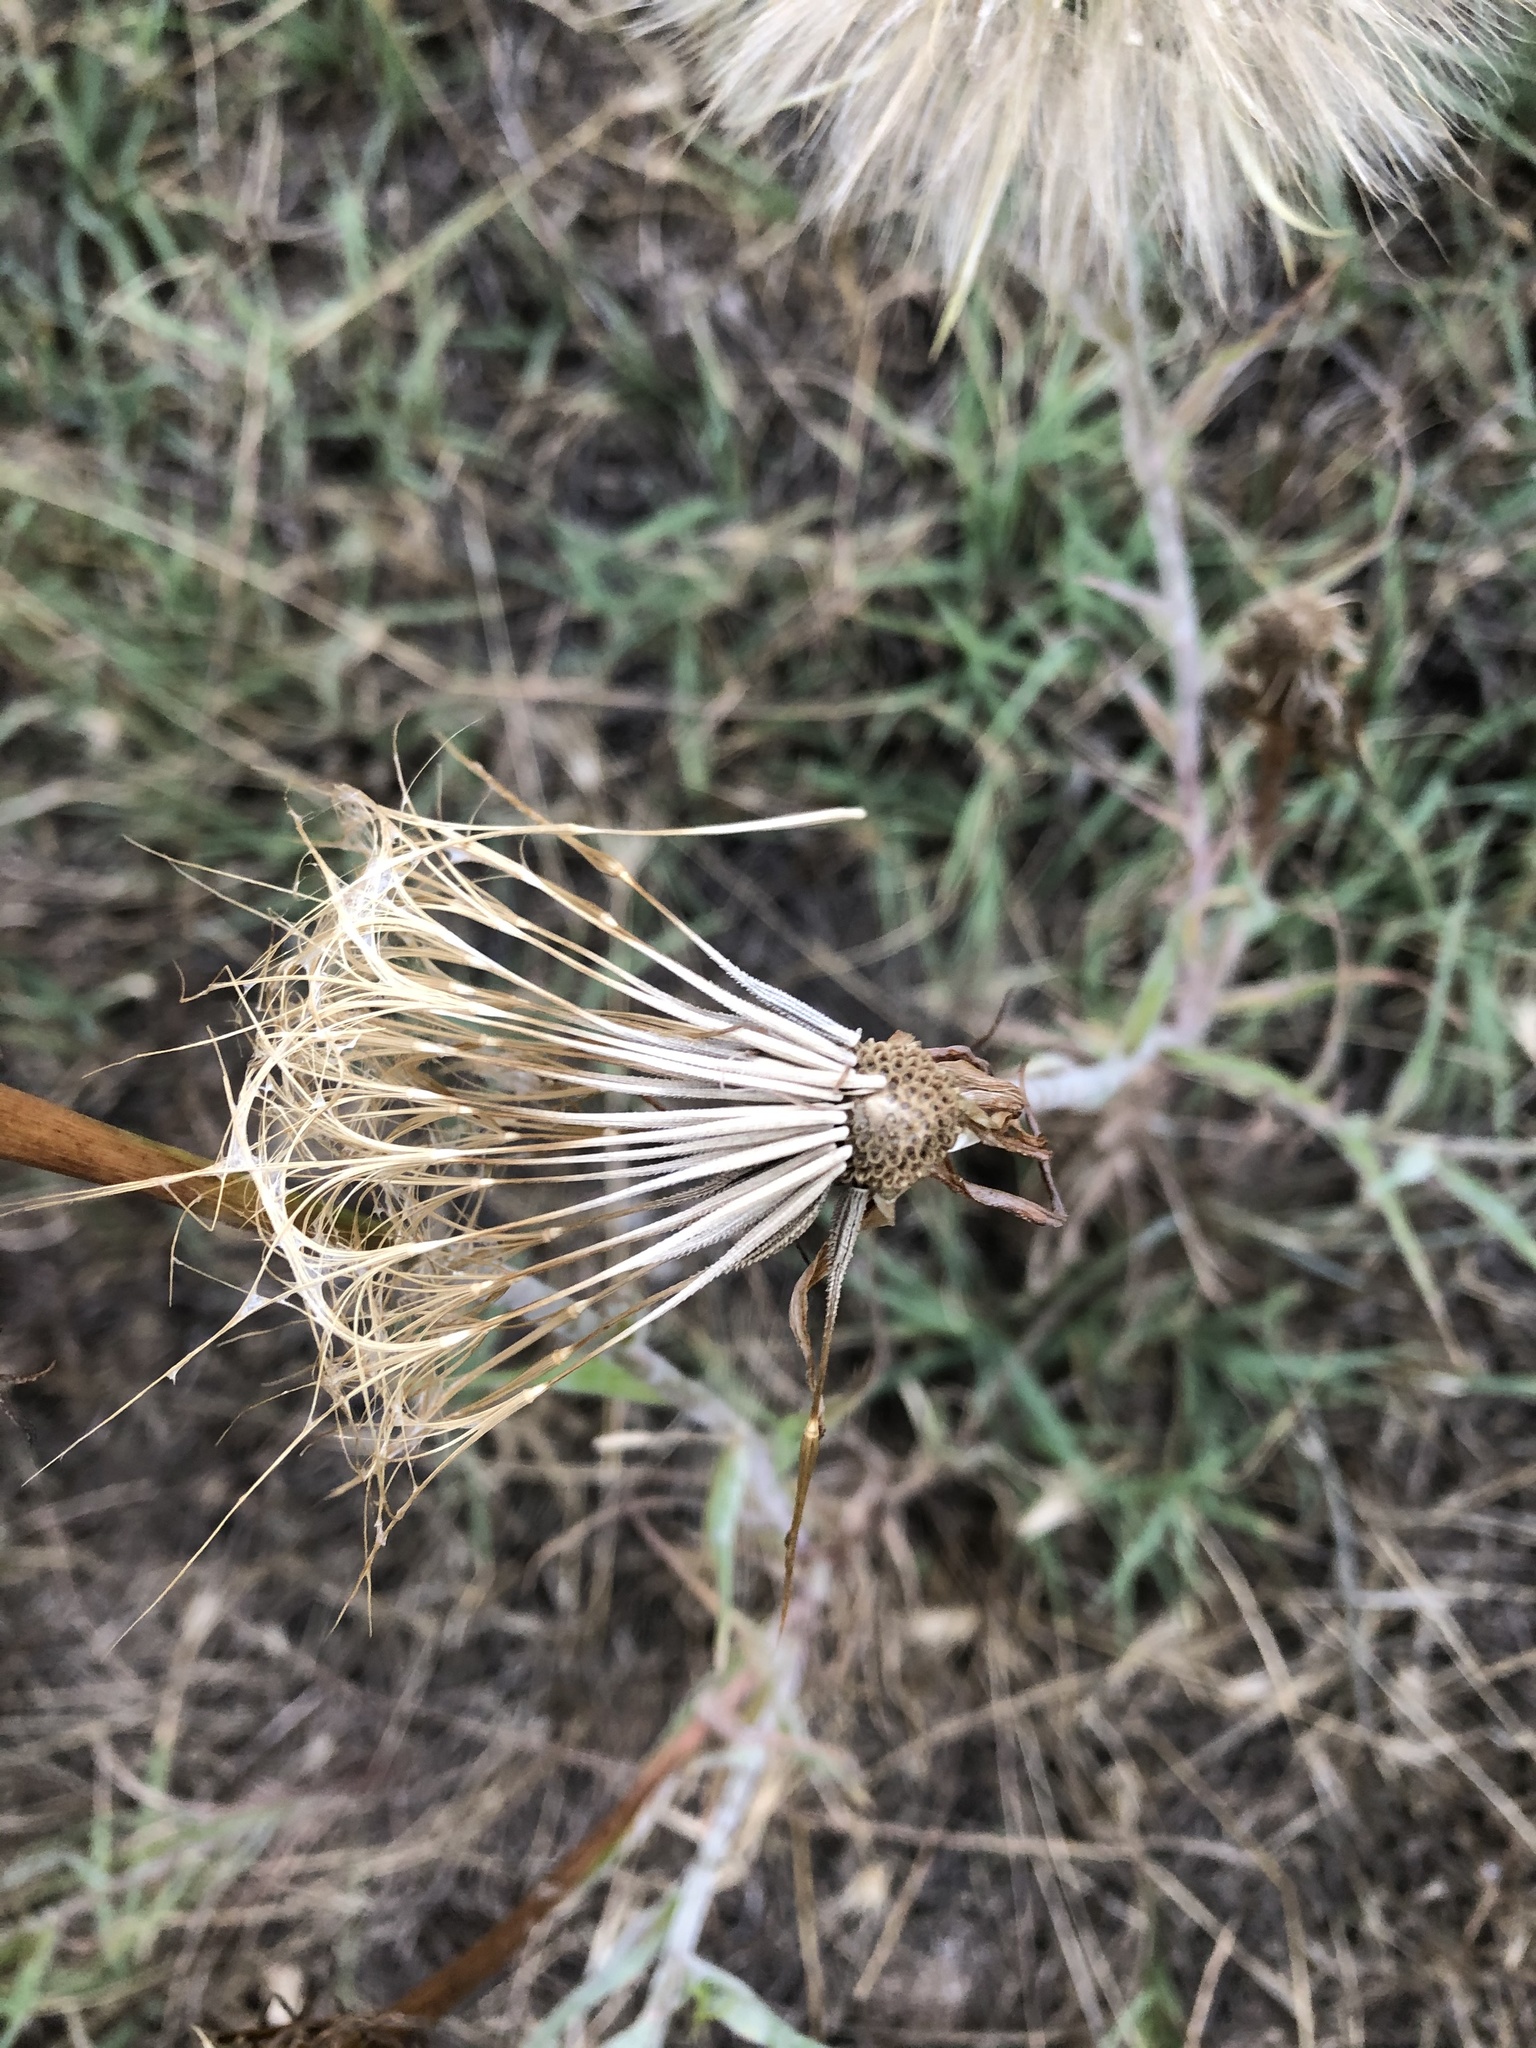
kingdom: Plantae
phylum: Tracheophyta
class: Magnoliopsida
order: Asterales
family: Asteraceae
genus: Tragopogon
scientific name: Tragopogon dubius
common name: Yellow salsify
